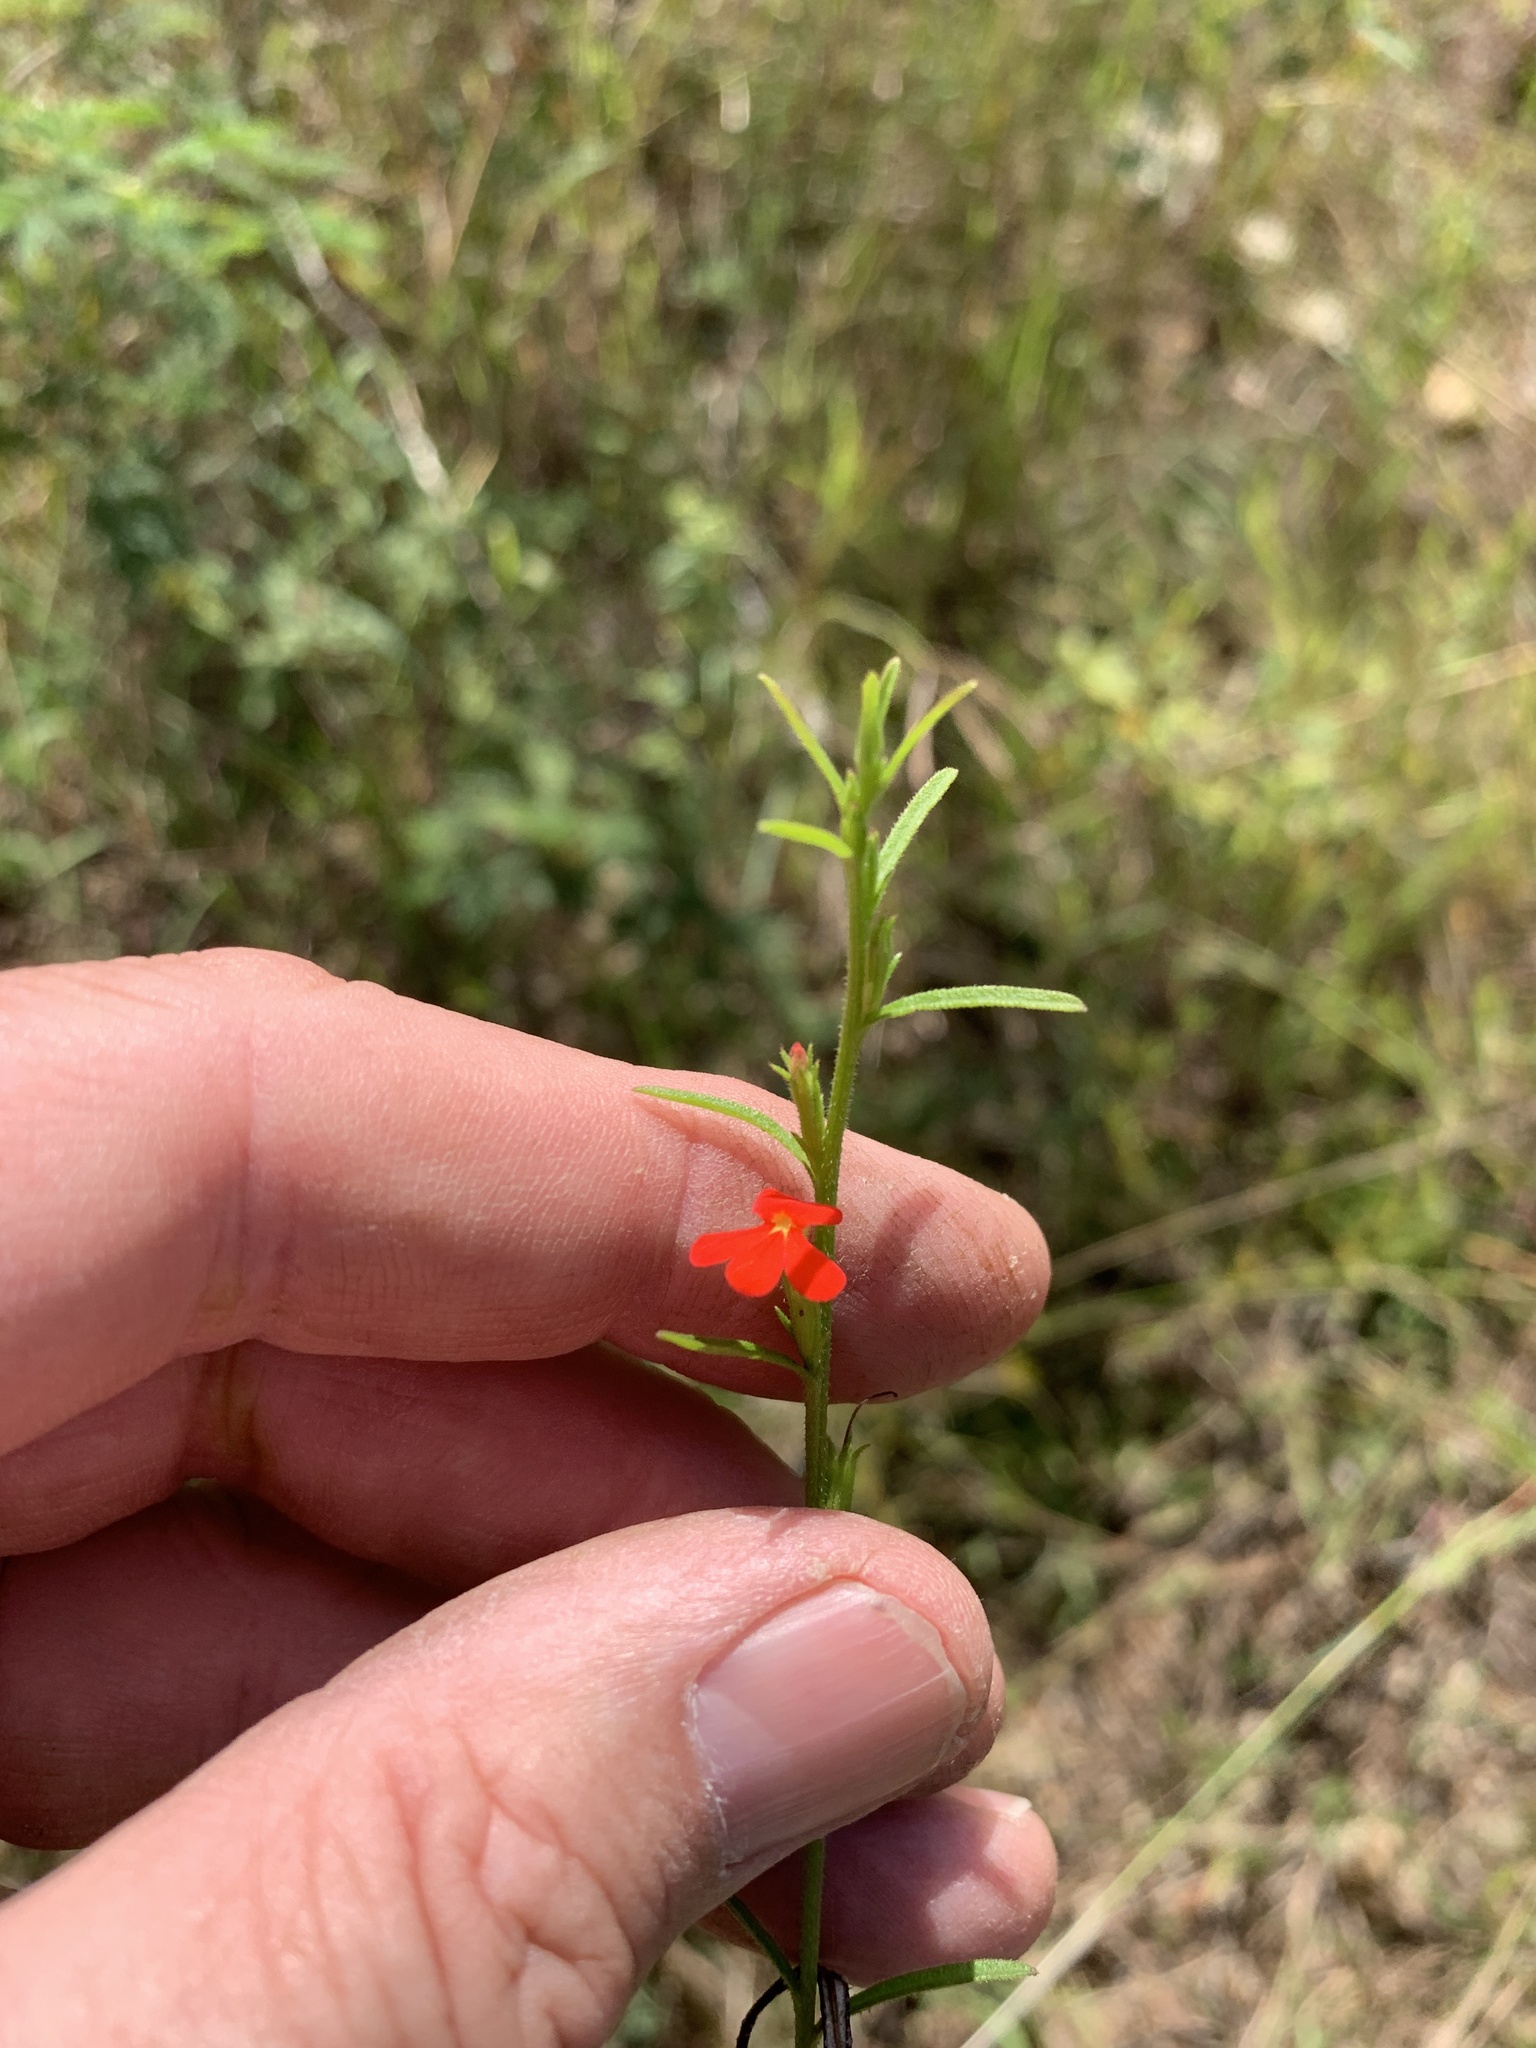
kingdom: Plantae
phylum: Tracheophyta
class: Magnoliopsida
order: Lamiales
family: Orobanchaceae
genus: Striga
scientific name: Striga asiatica
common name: Asiatic witchweed
